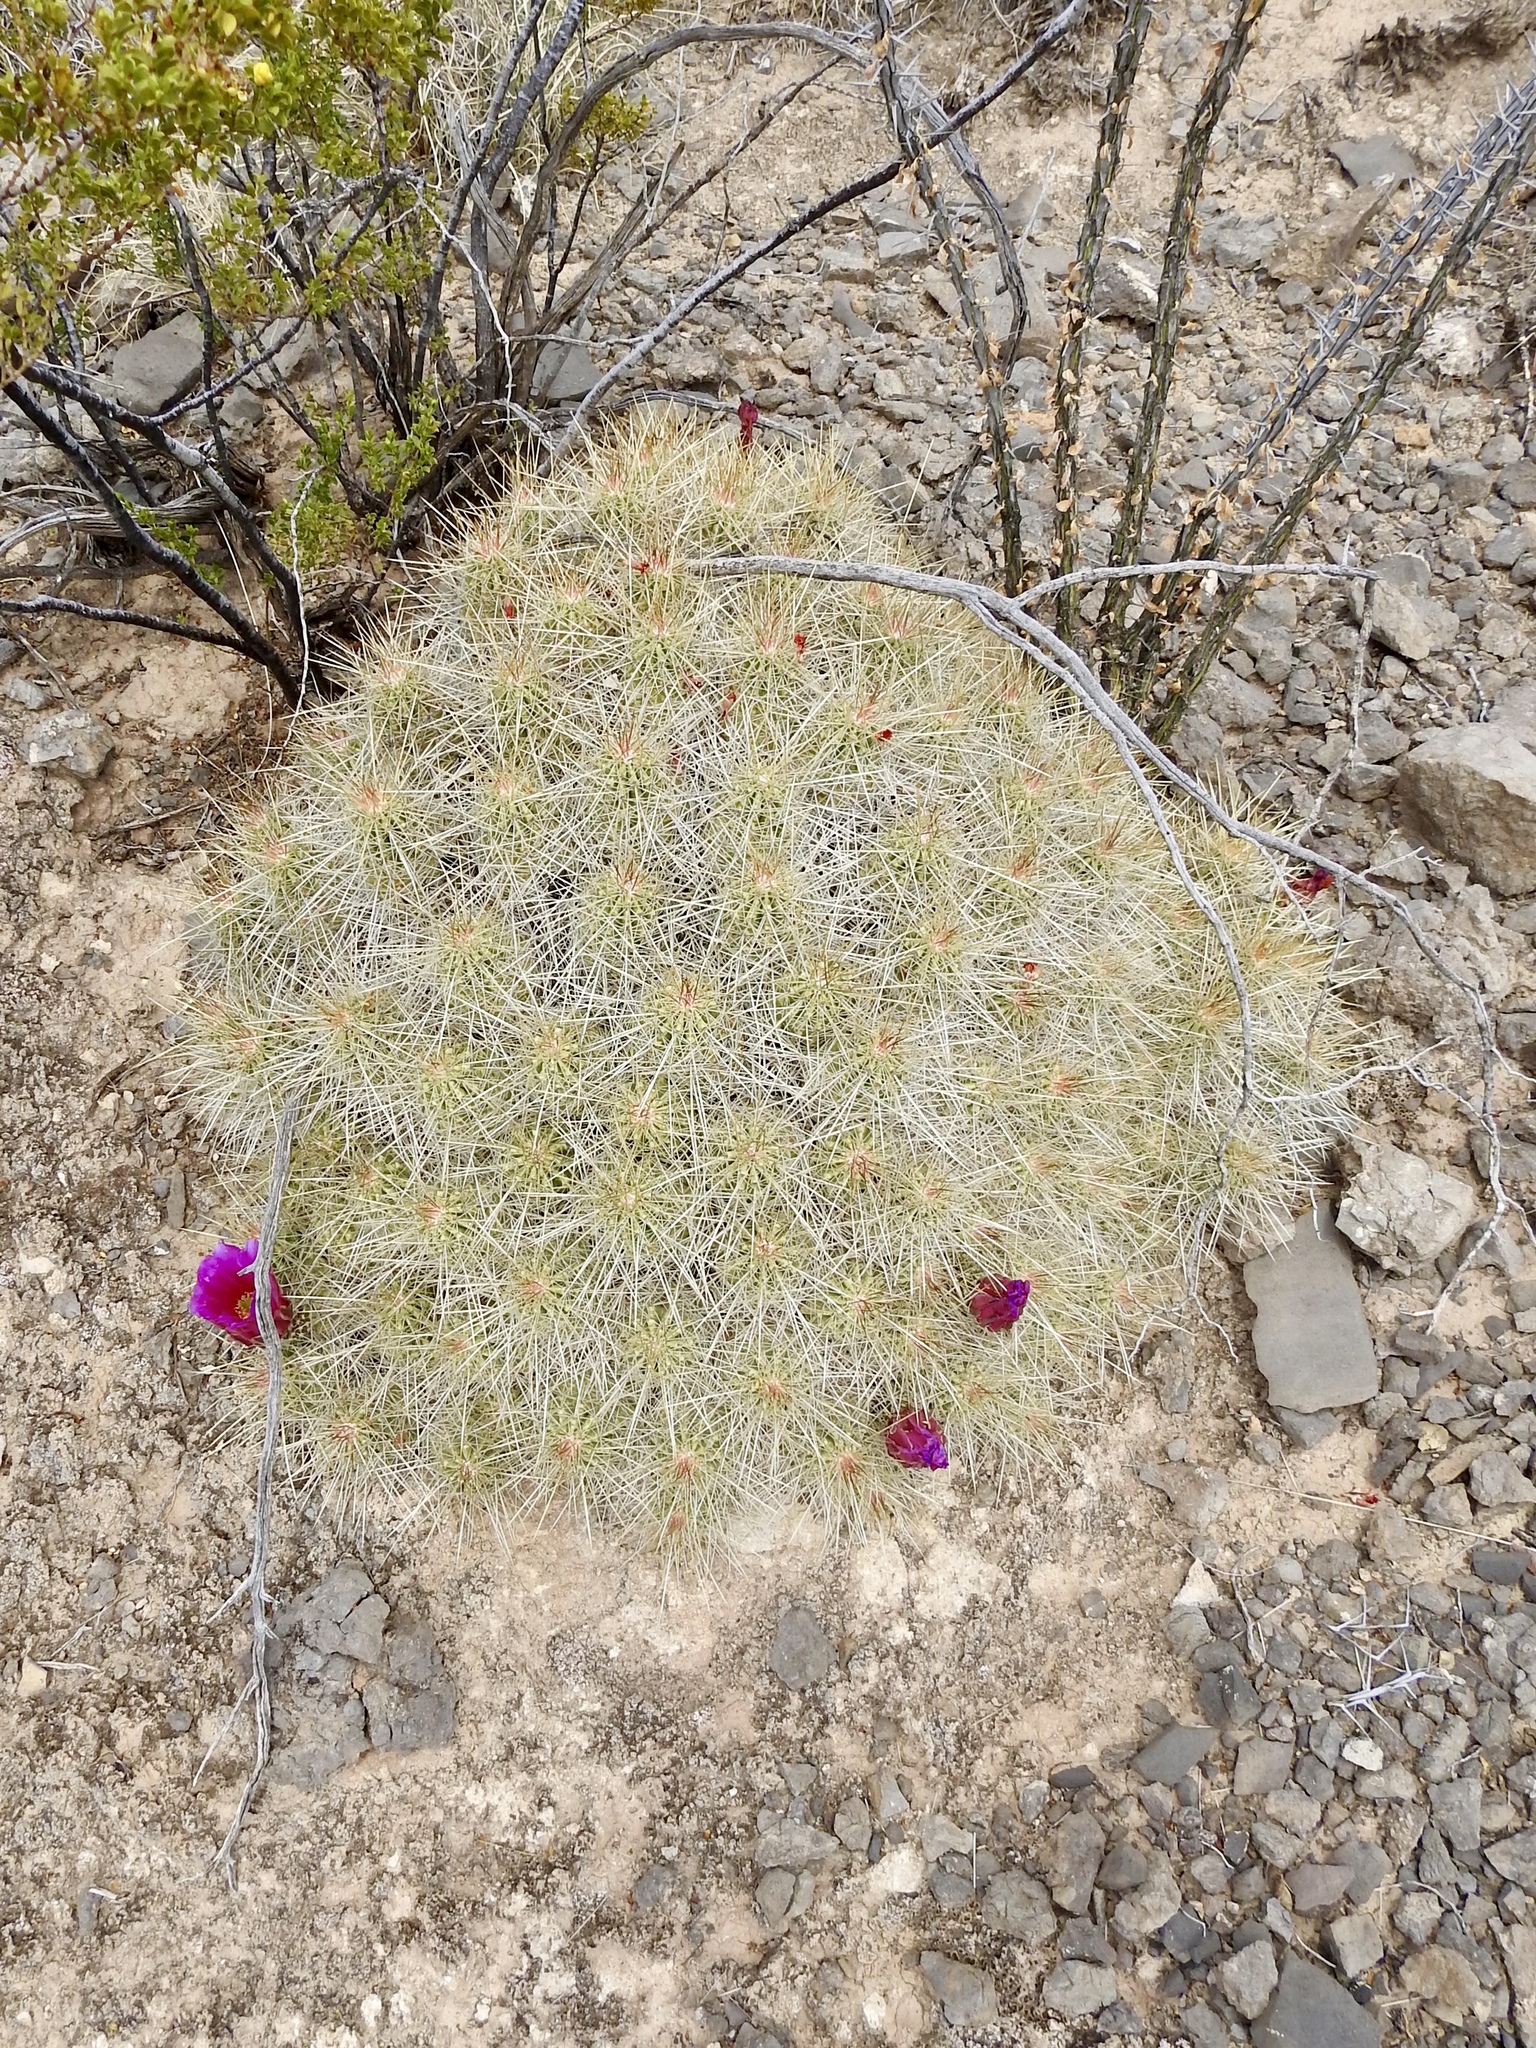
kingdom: Plantae
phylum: Tracheophyta
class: Magnoliopsida
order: Caryophyllales
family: Cactaceae
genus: Echinocereus
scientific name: Echinocereus stramineus
